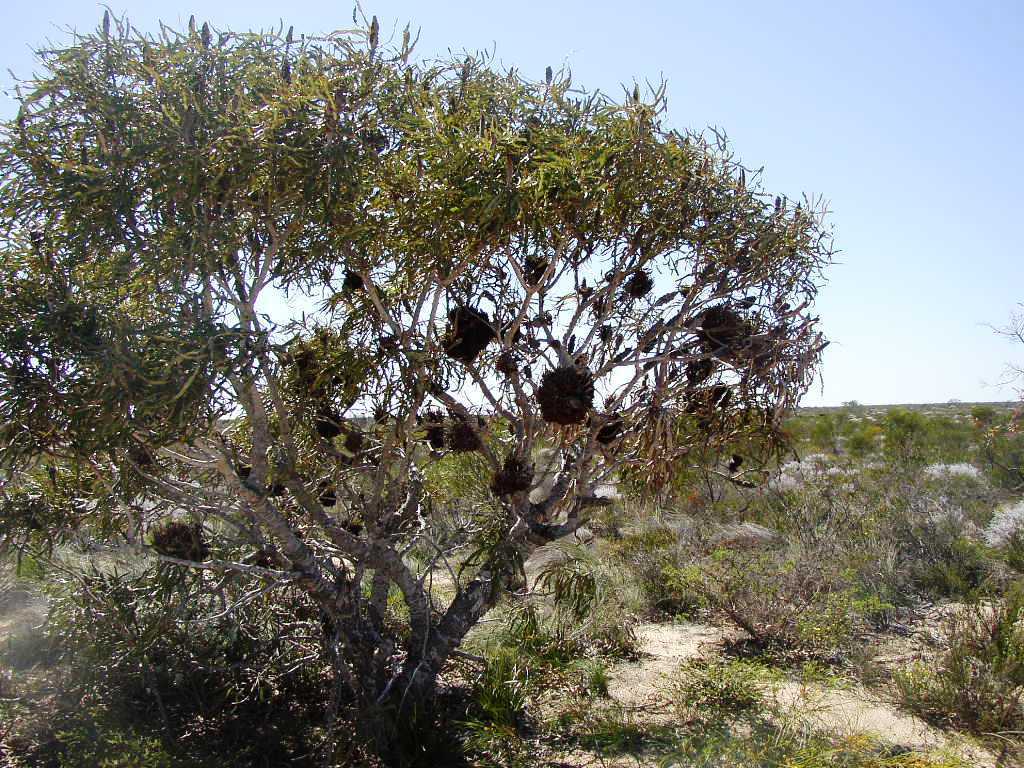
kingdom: Plantae
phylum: Tracheophyta
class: Magnoliopsida
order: Proteales
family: Proteaceae
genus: Banksia
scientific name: Banksia prionotes
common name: Acorn banksia
